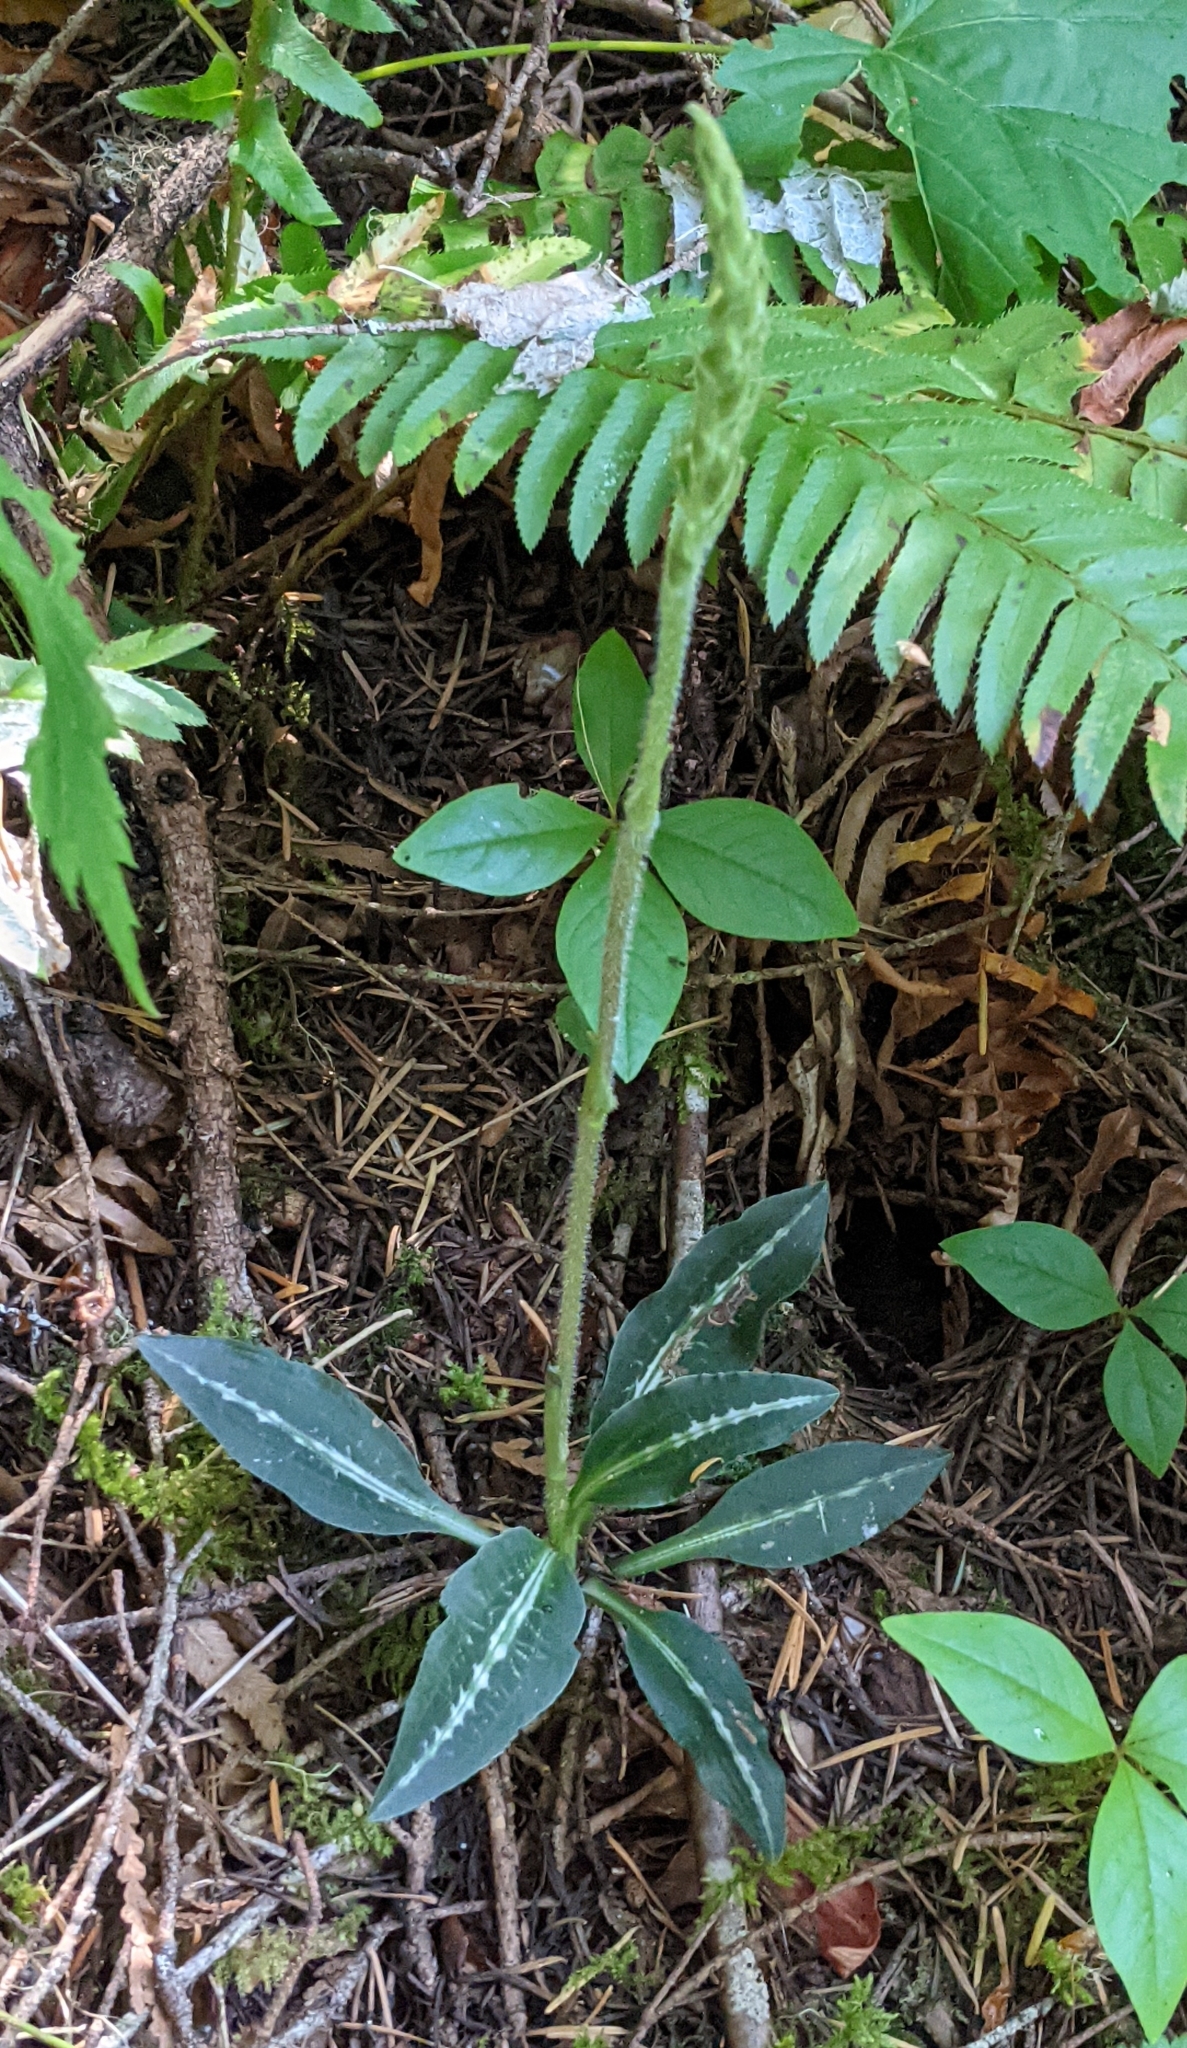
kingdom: Plantae
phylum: Tracheophyta
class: Liliopsida
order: Asparagales
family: Orchidaceae
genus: Goodyera
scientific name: Goodyera oblongifolia
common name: Giant rattlesnake-plantain
